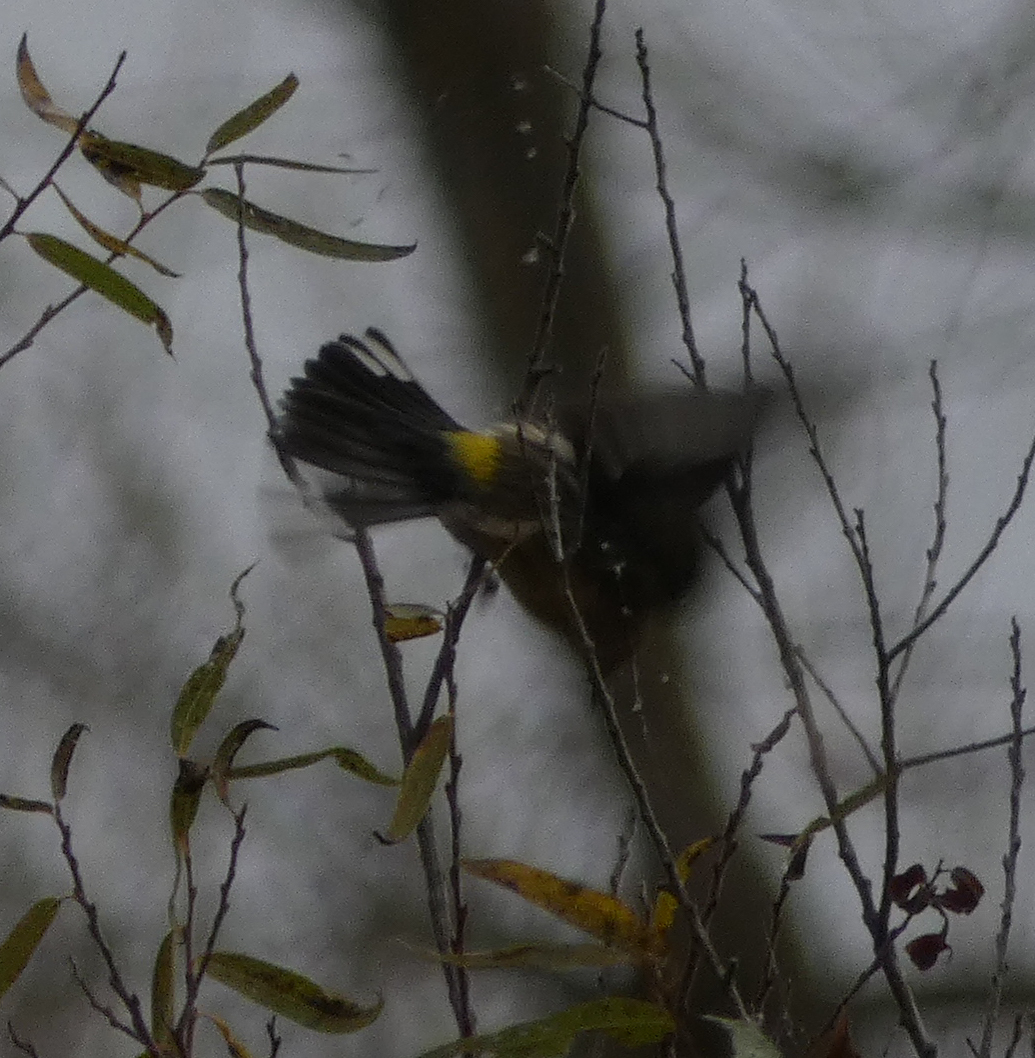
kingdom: Animalia
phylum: Chordata
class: Aves
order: Passeriformes
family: Parulidae
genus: Setophaga
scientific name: Setophaga coronata
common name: Myrtle warbler
